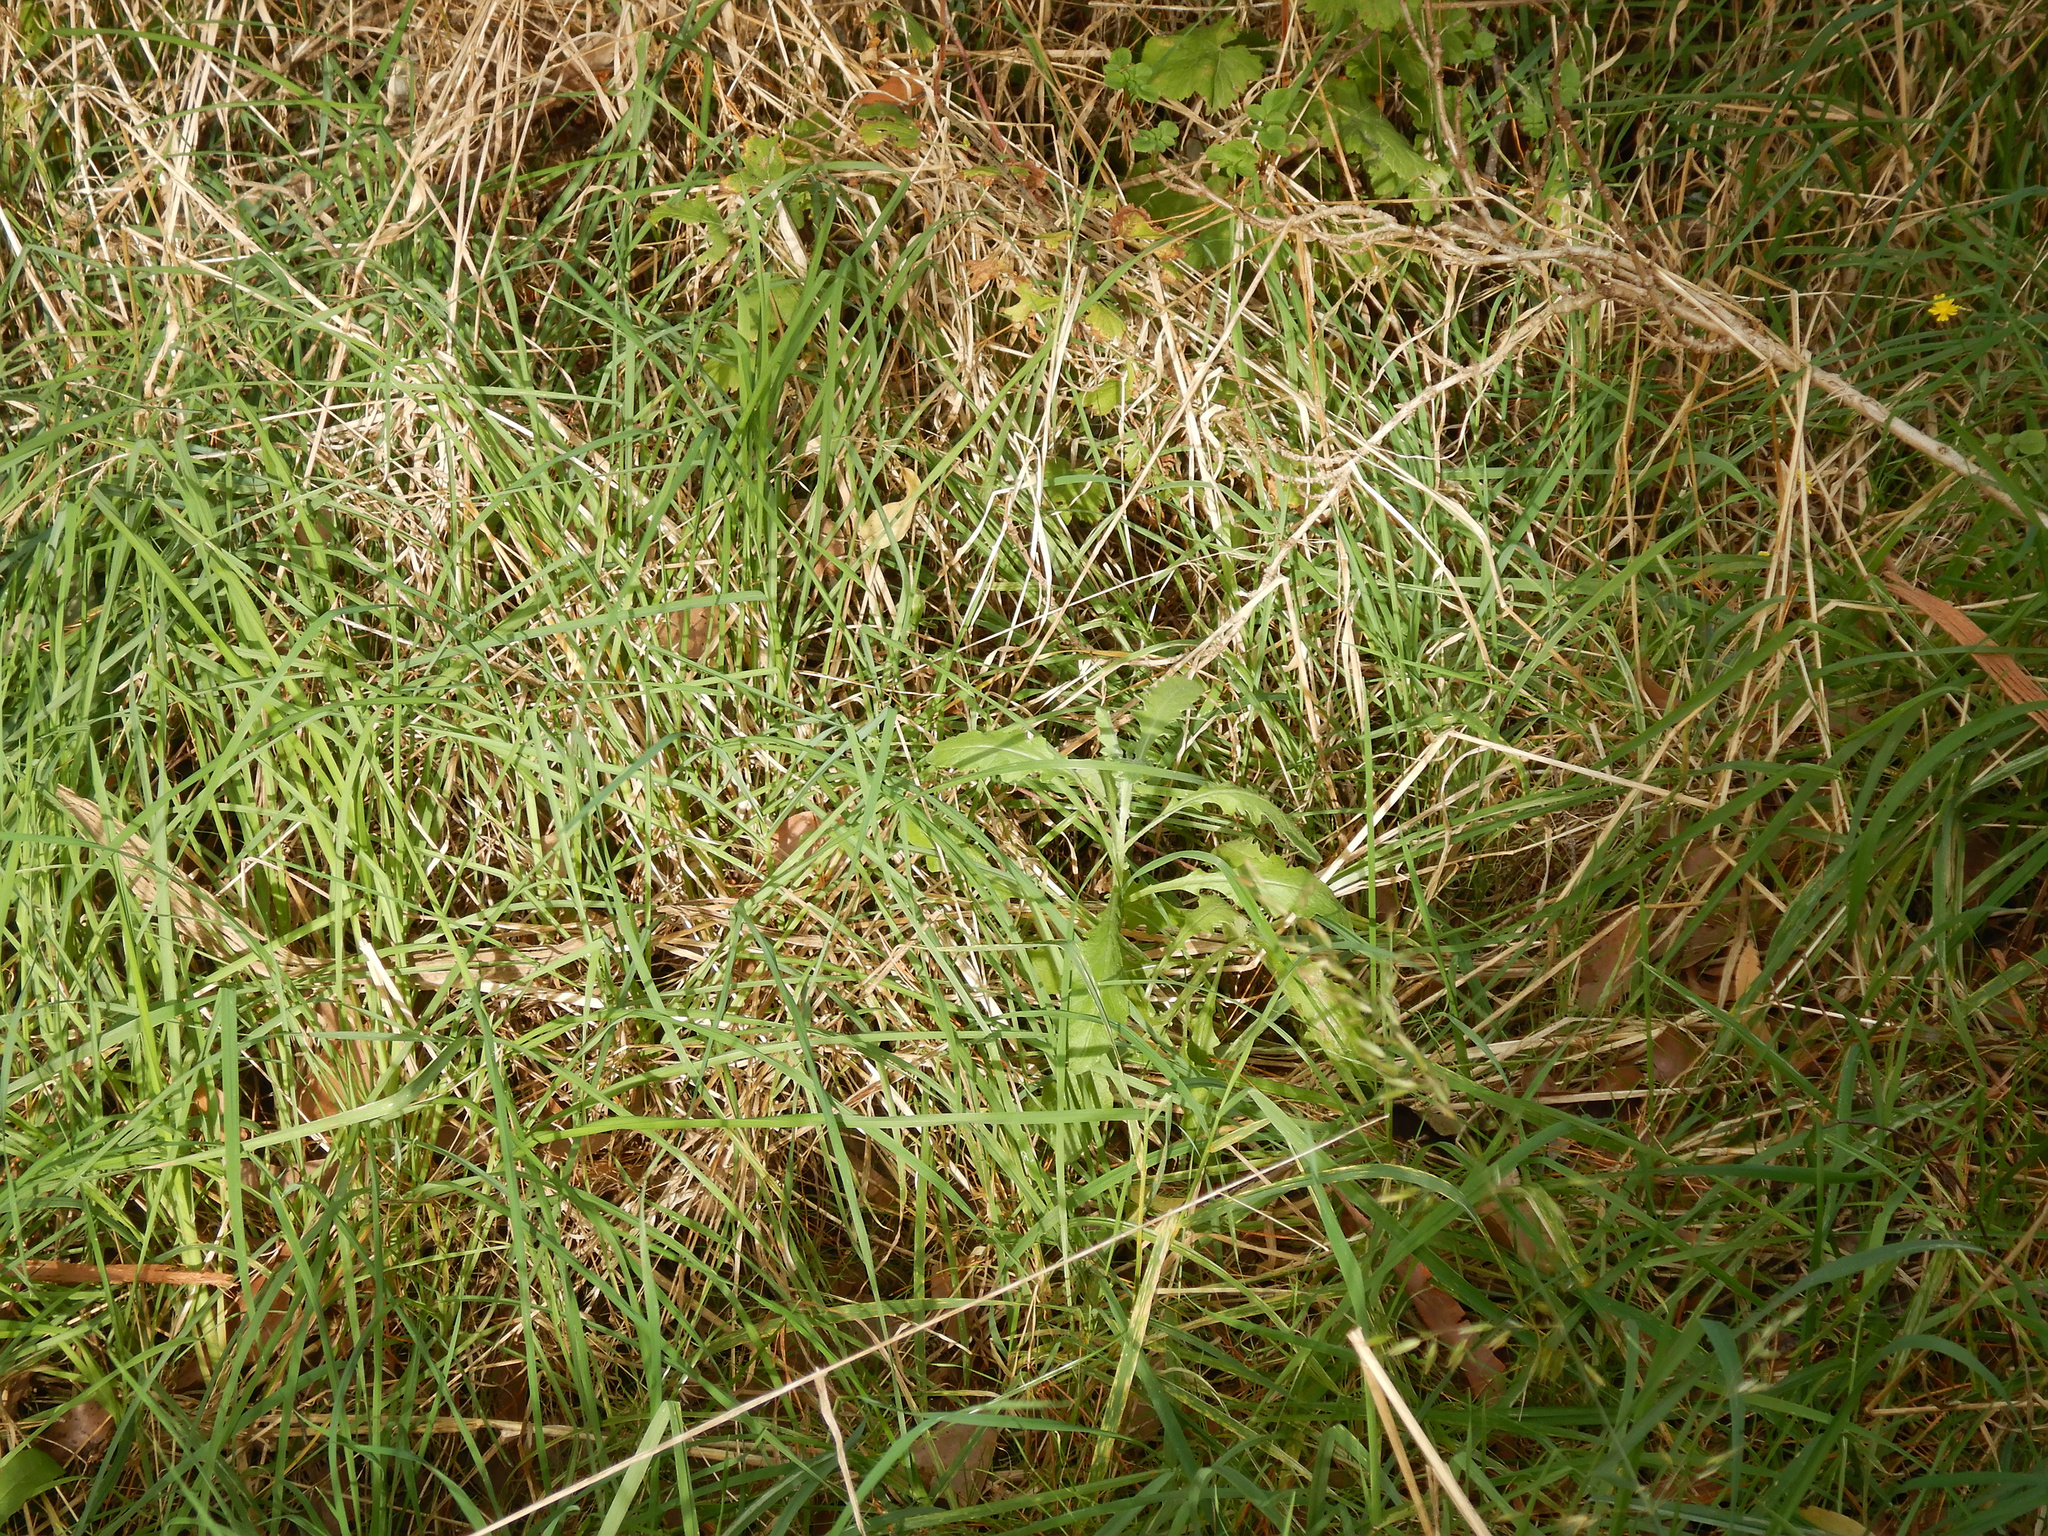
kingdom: Plantae
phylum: Tracheophyta
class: Magnoliopsida
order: Asterales
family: Asteraceae
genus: Senecio
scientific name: Senecio glomeratus
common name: Cutleaf burnweed
